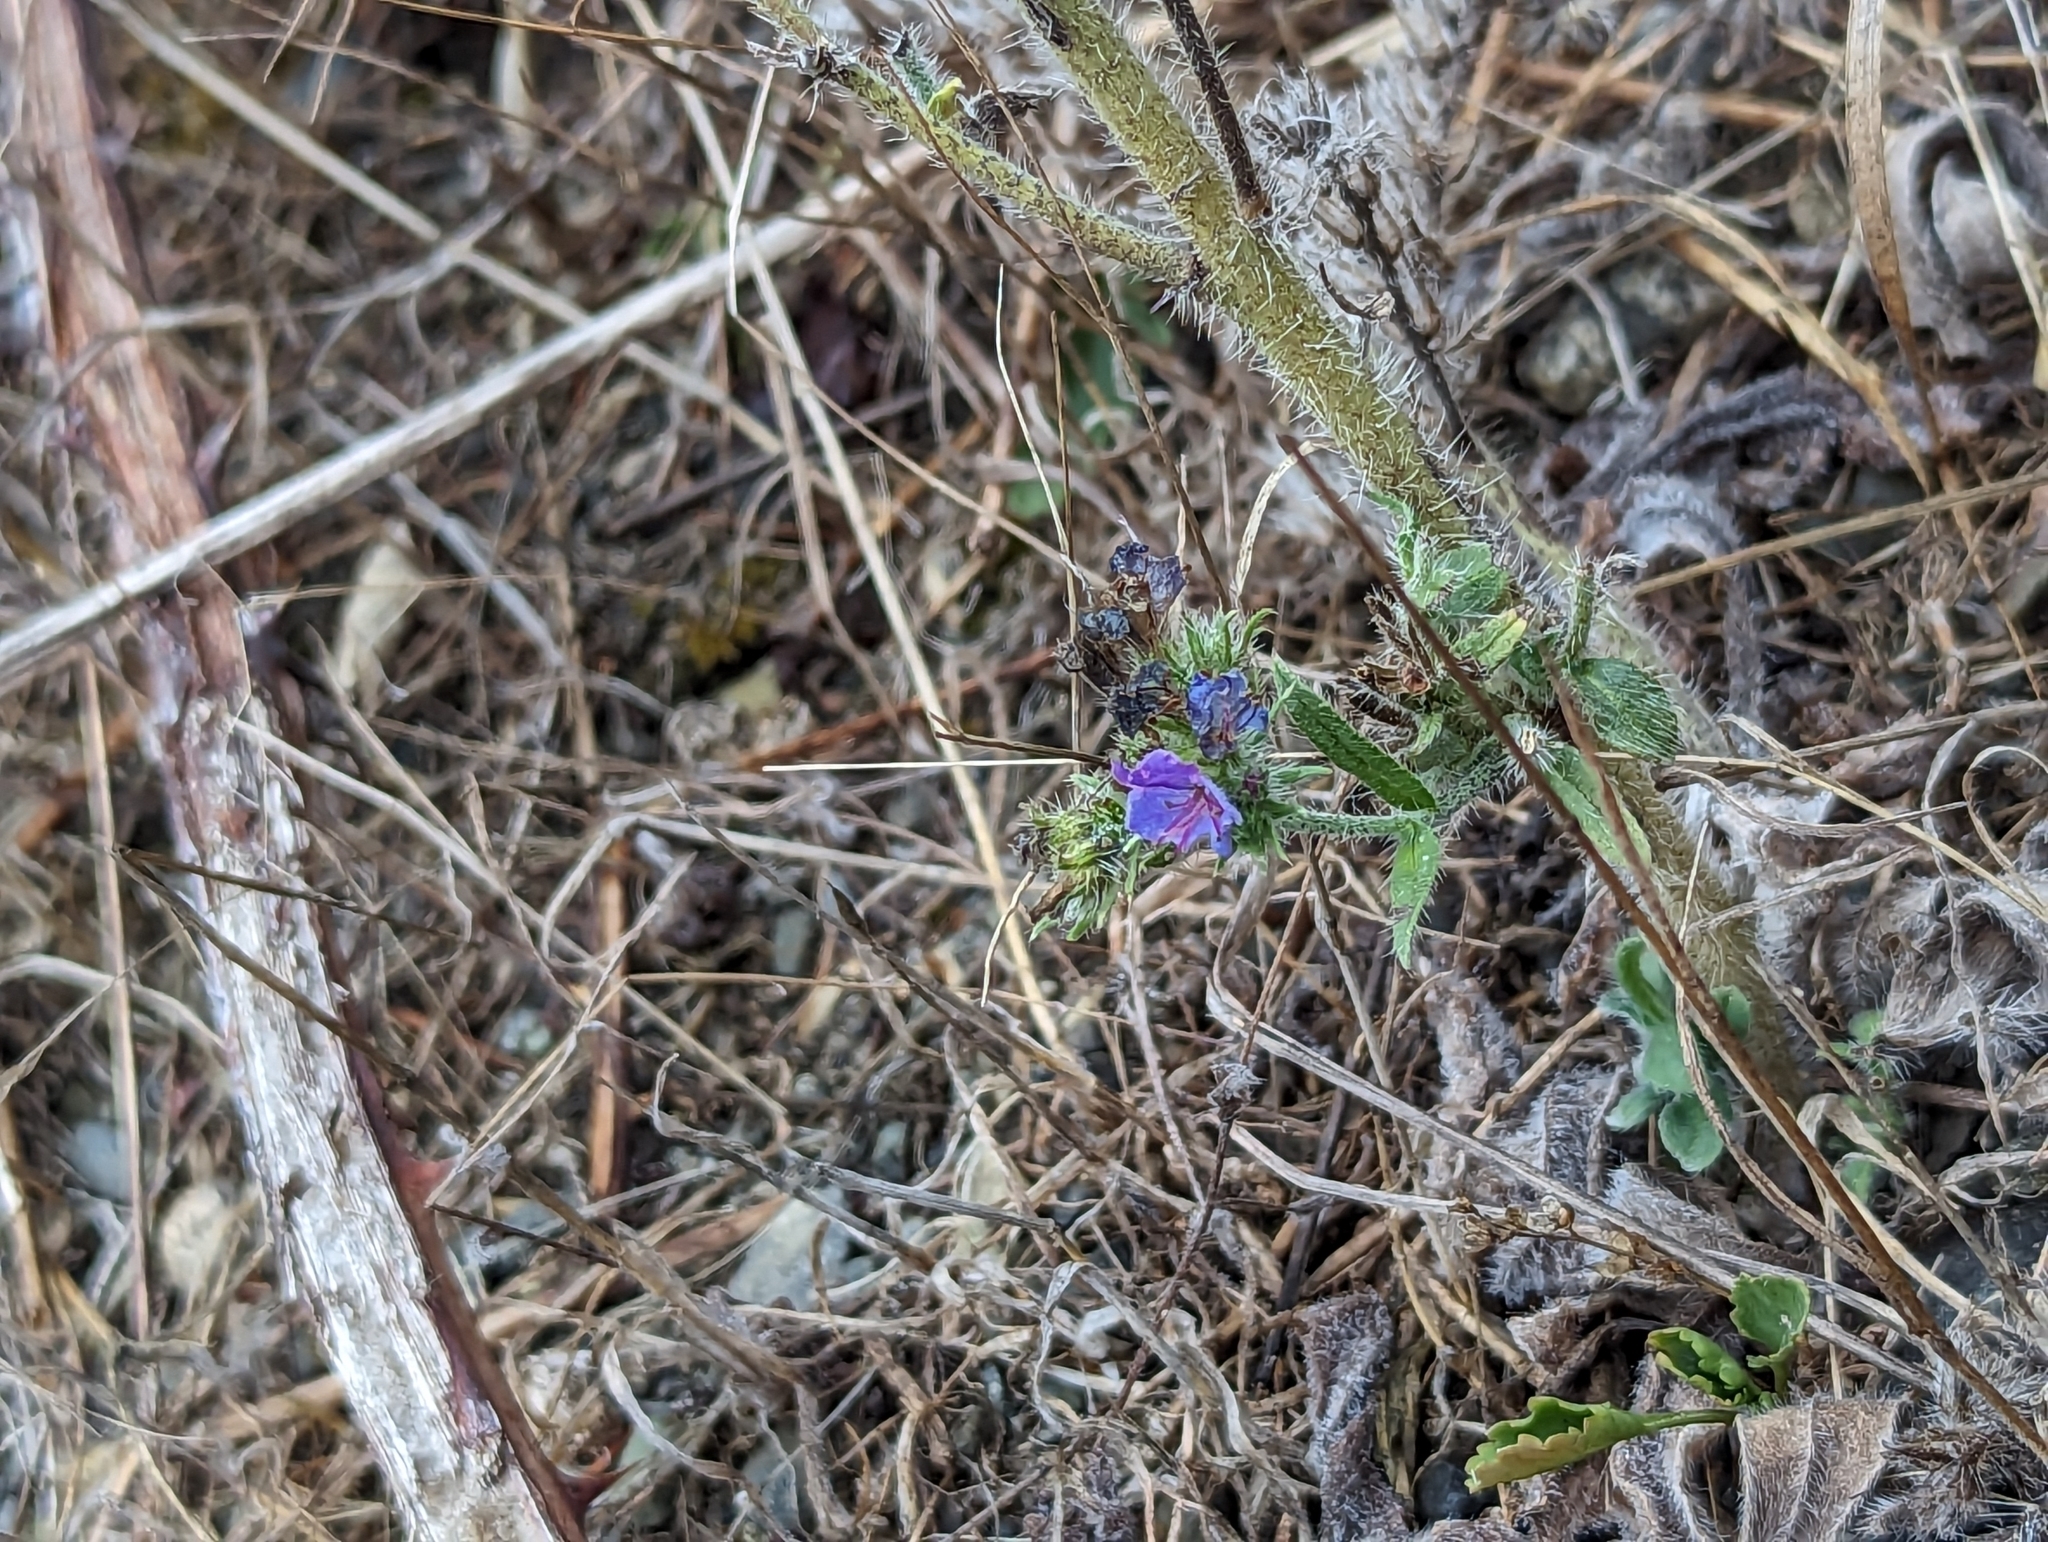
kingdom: Plantae
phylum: Tracheophyta
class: Magnoliopsida
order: Boraginales
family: Boraginaceae
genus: Echium
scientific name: Echium vulgare
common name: Common viper's bugloss
